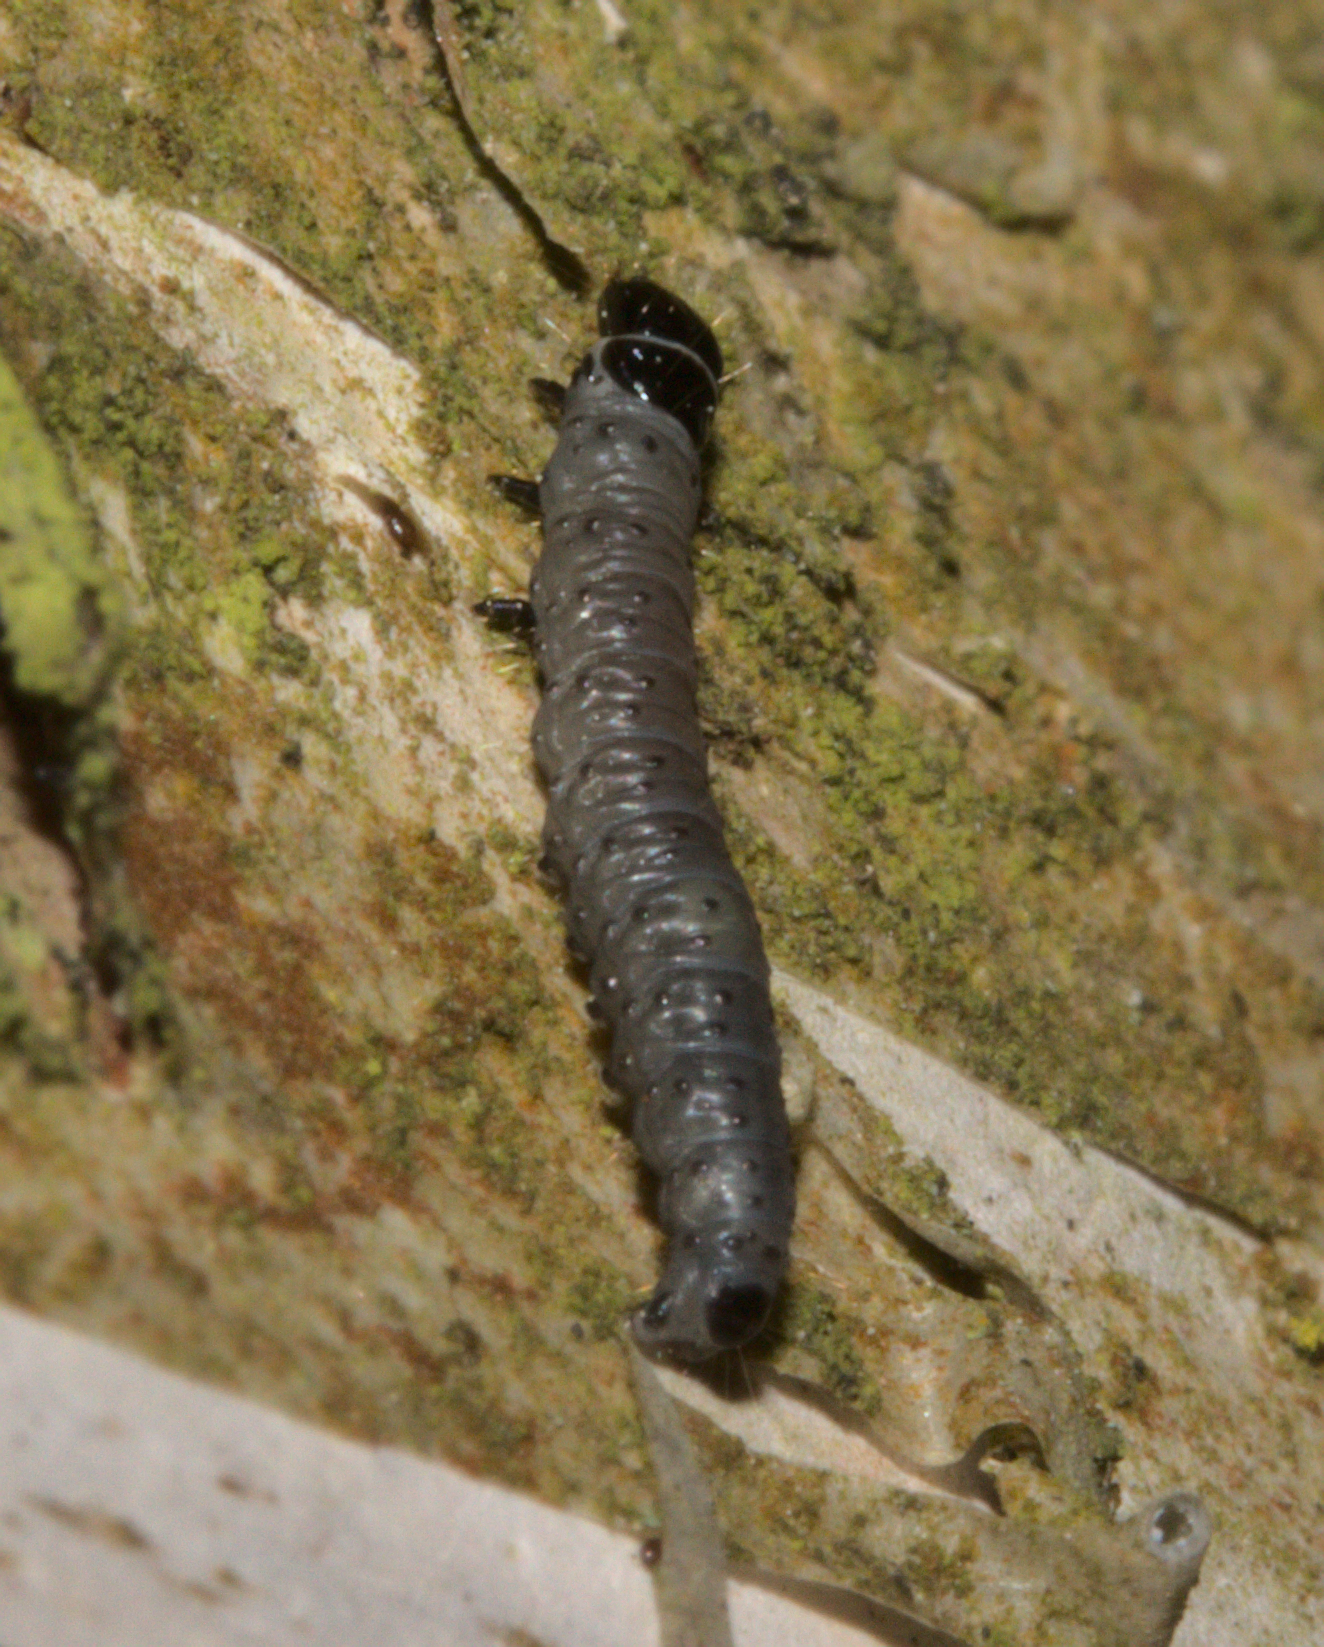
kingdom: Animalia
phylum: Arthropoda
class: Insecta
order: Lepidoptera
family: Tortricidae
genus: Archips
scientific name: Archips
